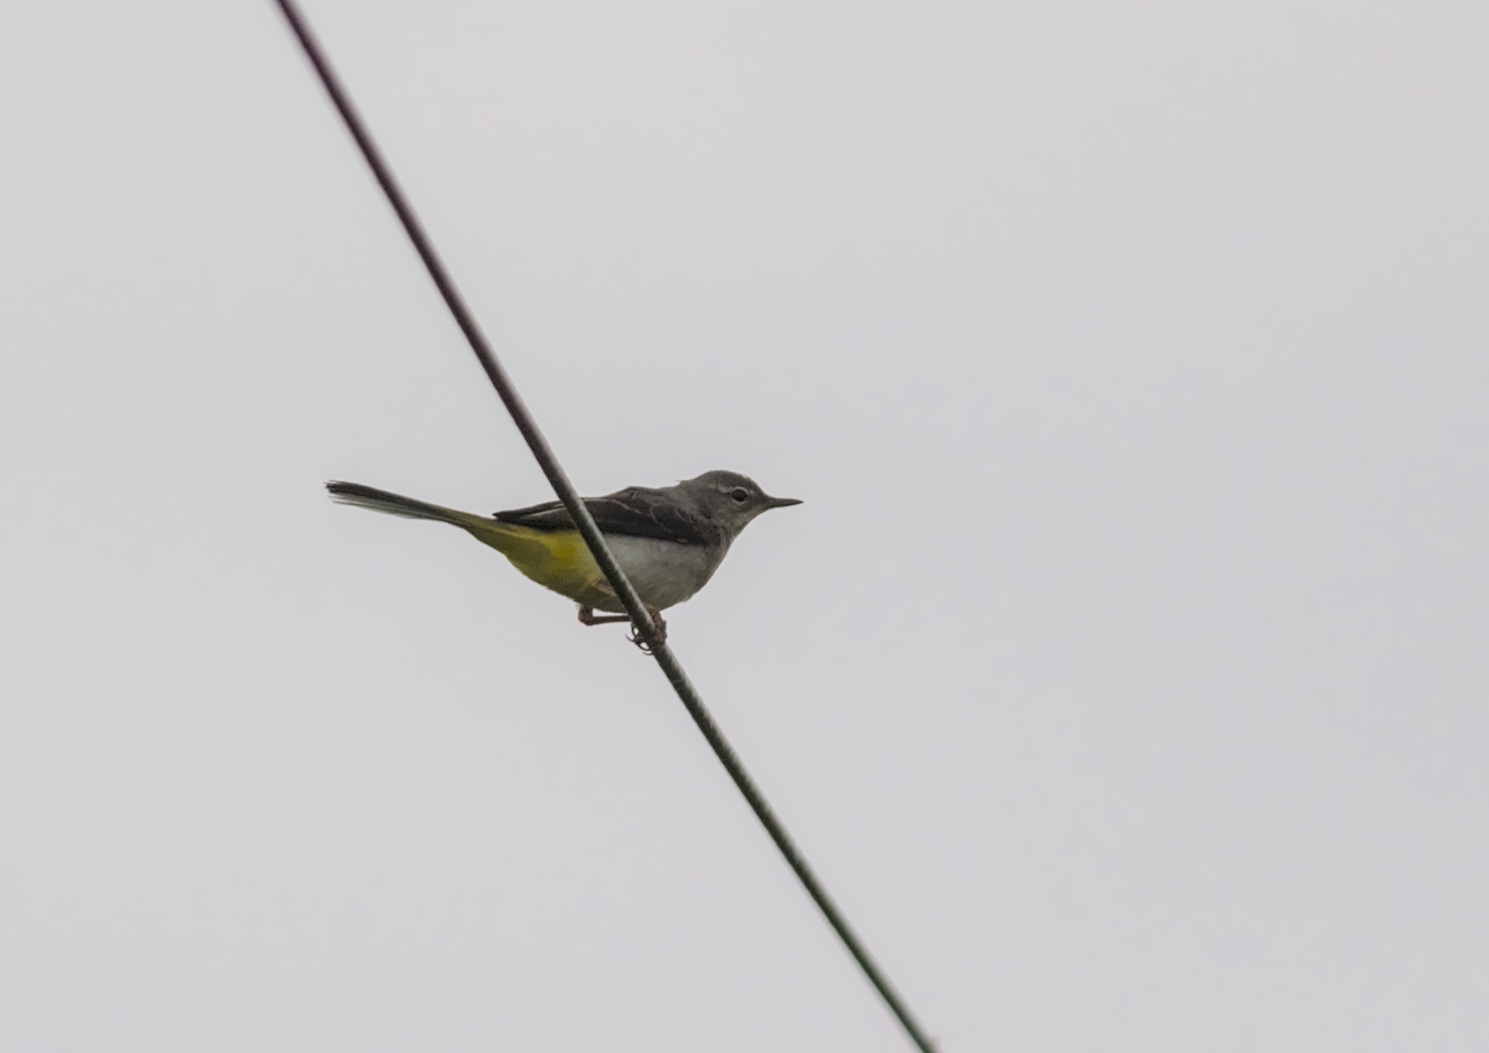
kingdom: Animalia
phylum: Chordata
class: Aves
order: Passeriformes
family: Motacillidae
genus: Motacilla
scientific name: Motacilla cinerea
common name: Grey wagtail
